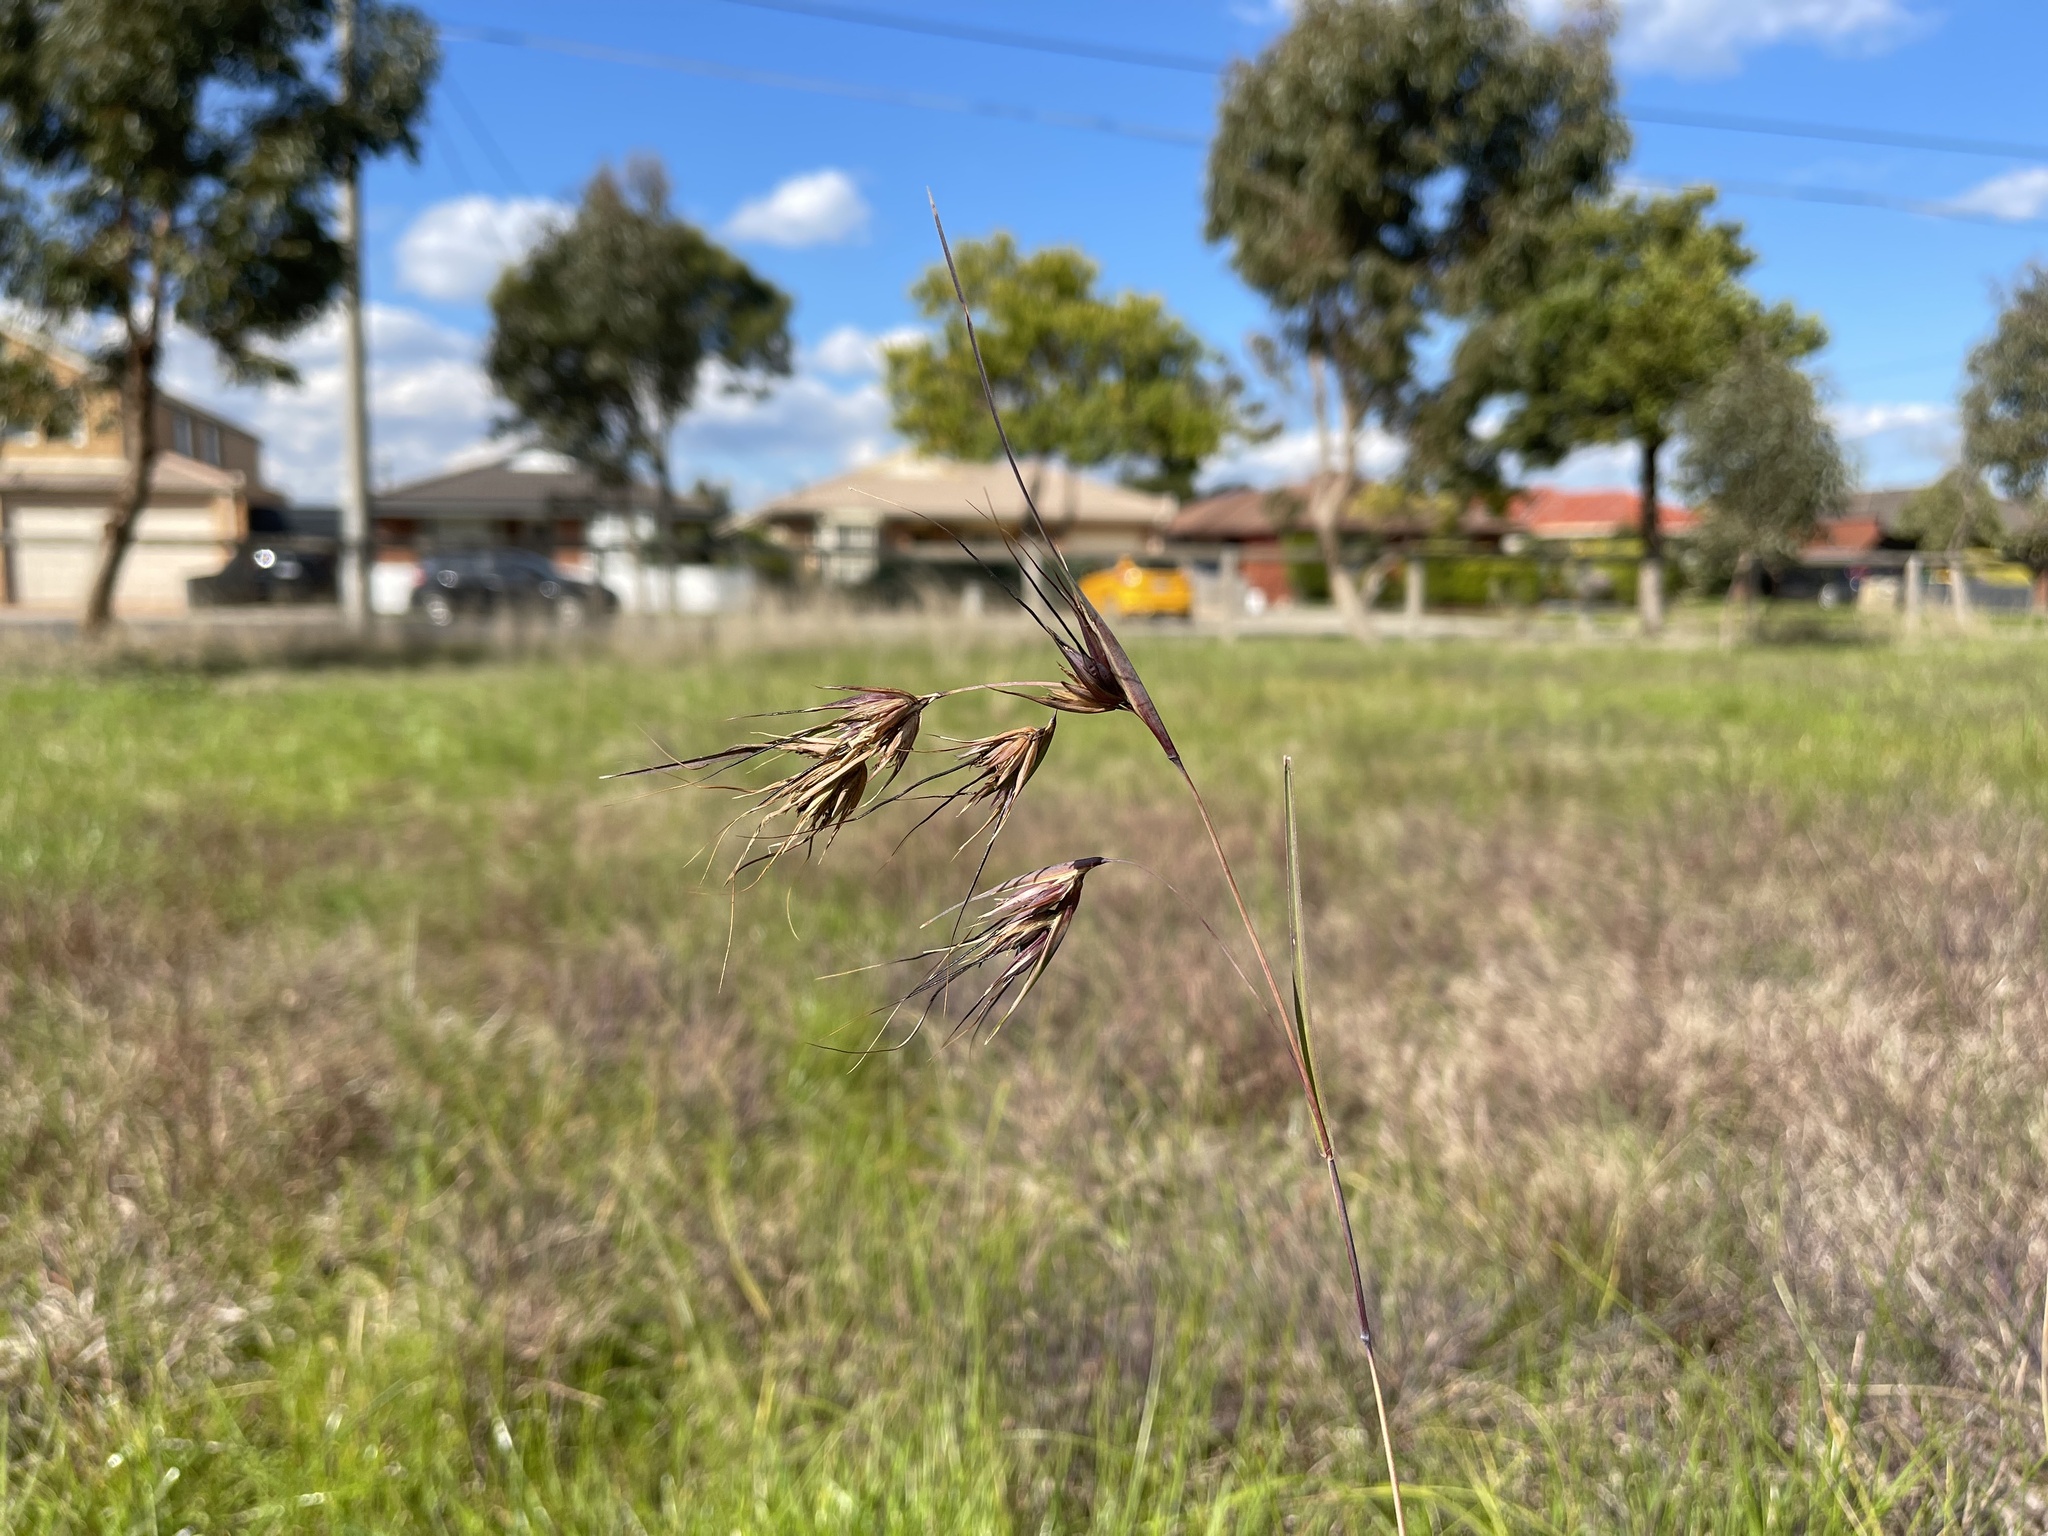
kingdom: Plantae
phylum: Tracheophyta
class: Liliopsida
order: Poales
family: Poaceae
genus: Themeda
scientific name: Themeda triandra
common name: Kangaroo grass
